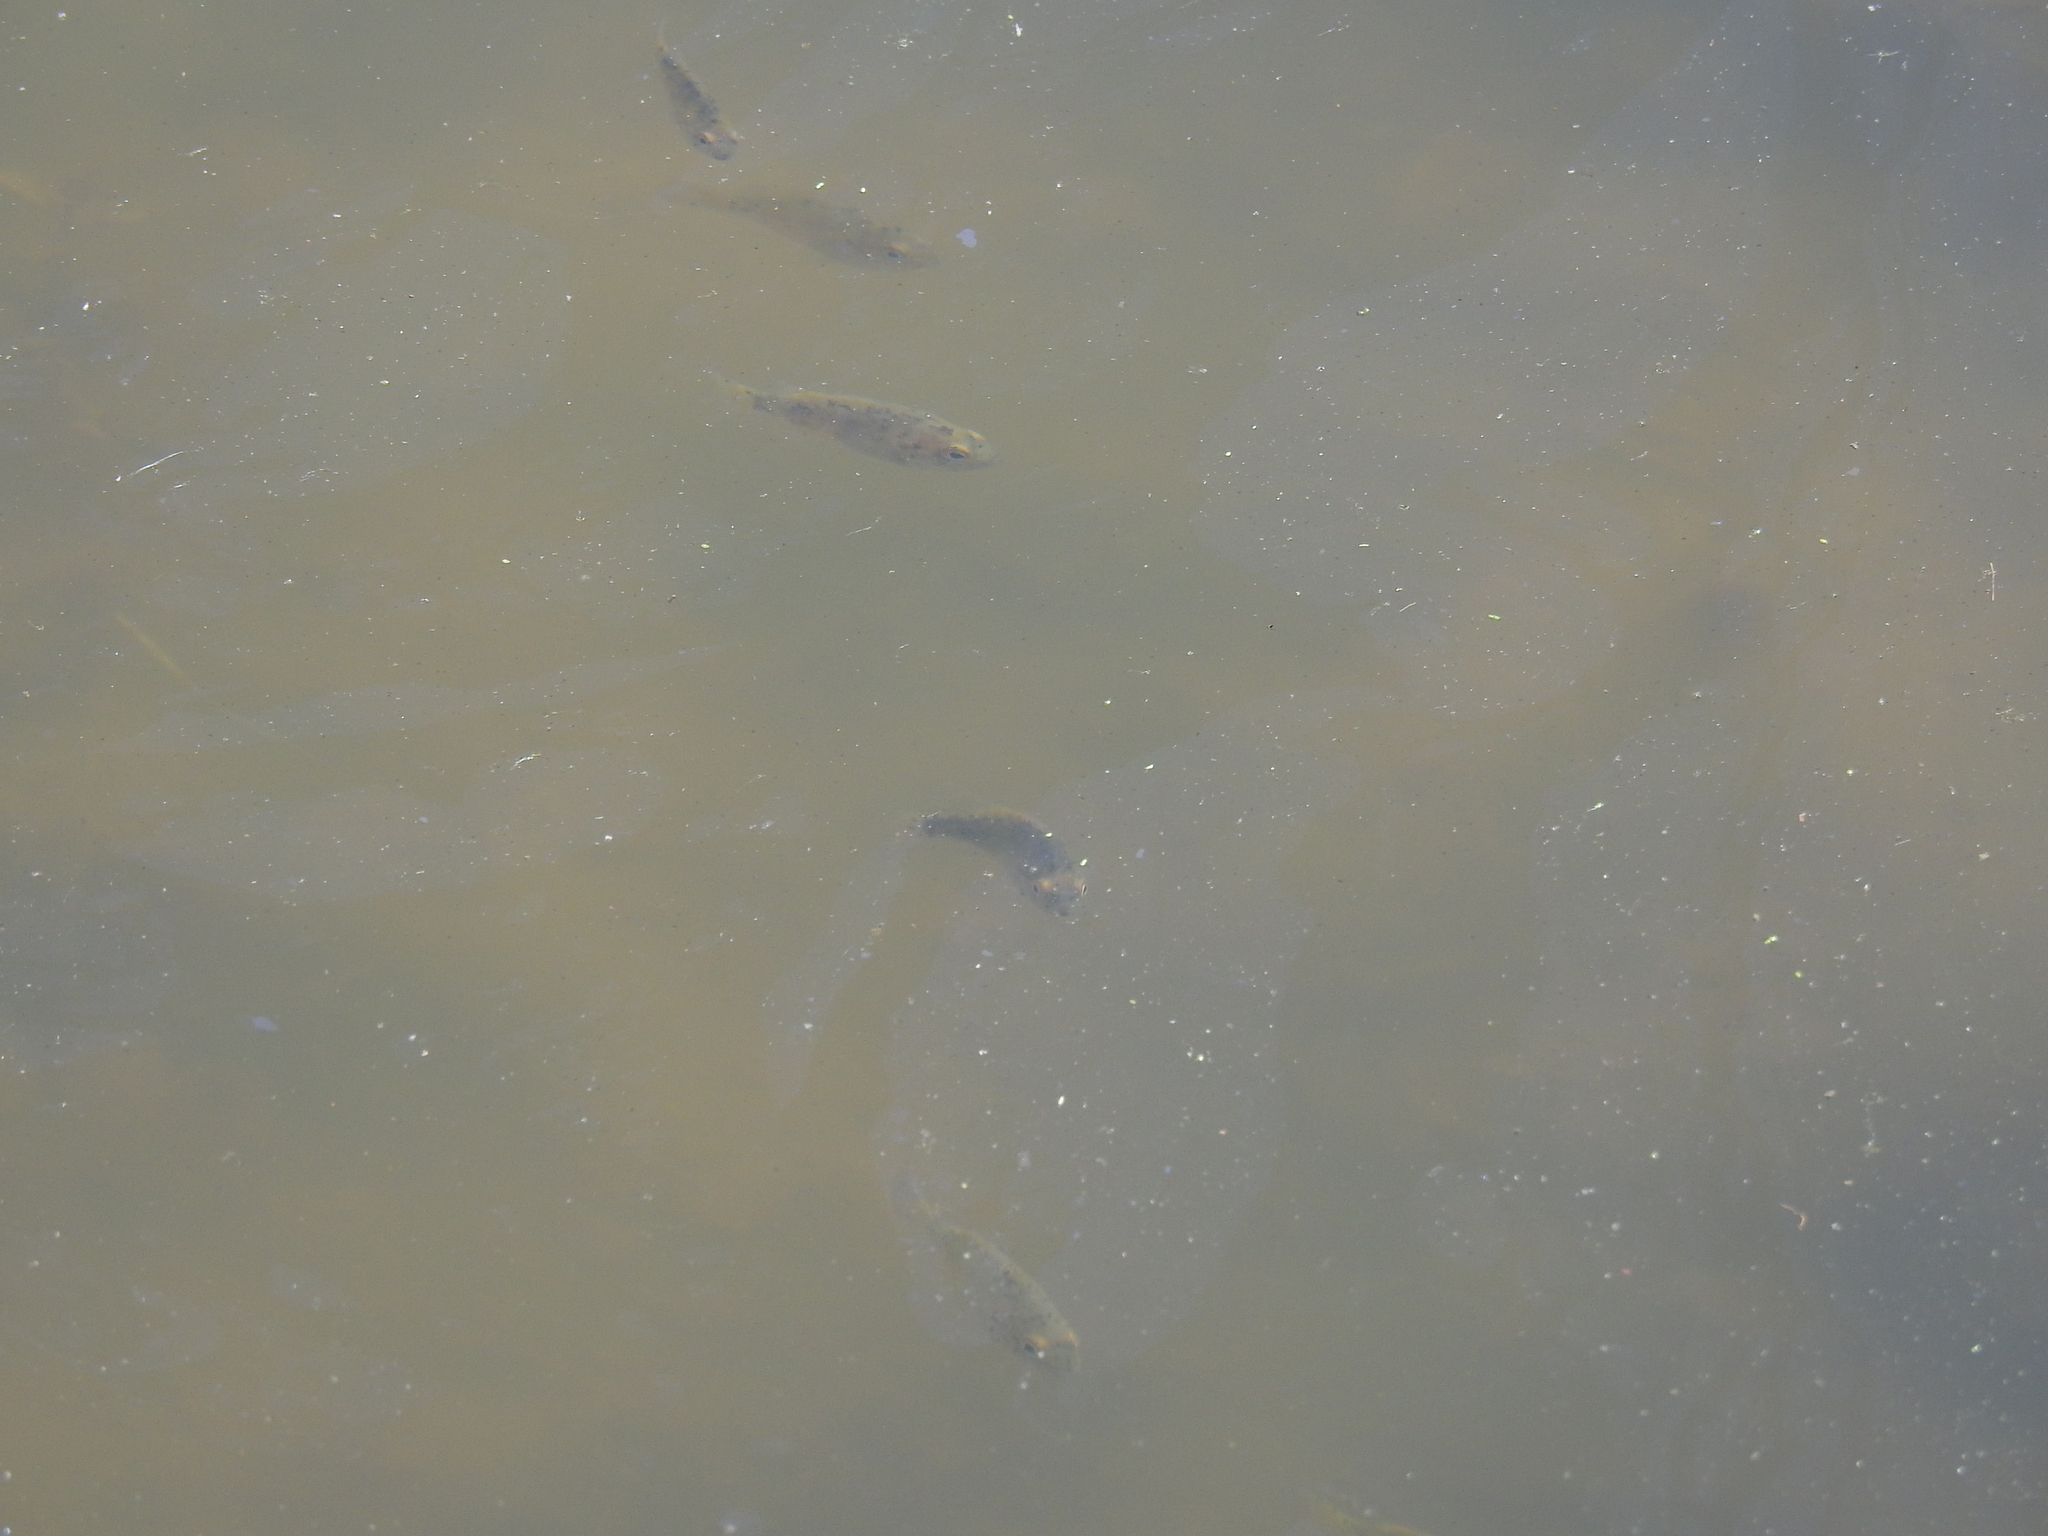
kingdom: Animalia
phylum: Chordata
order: Perciformes
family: Centrarchidae
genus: Ambloplites
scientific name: Ambloplites rupestris
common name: Rock bass
